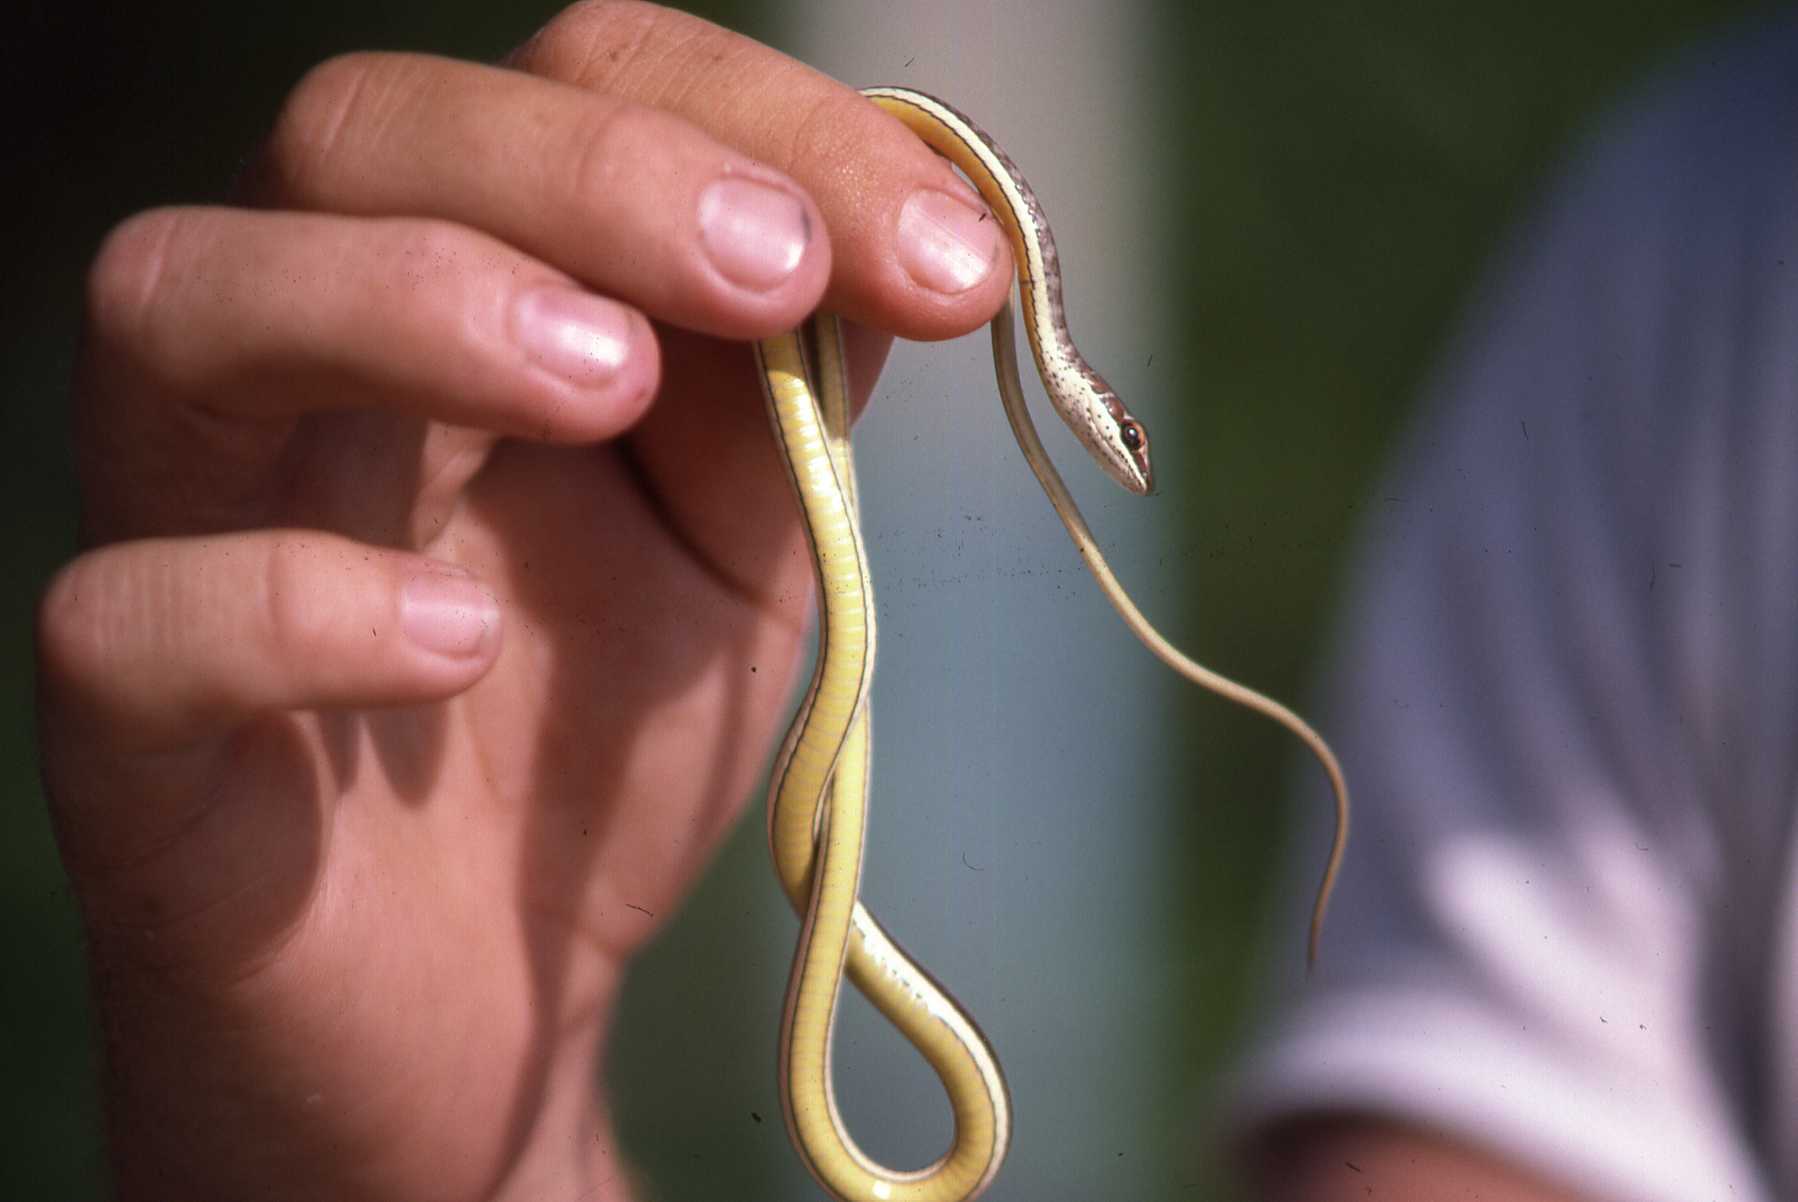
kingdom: Animalia
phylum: Chordata
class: Squamata
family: Psammophiidae
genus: Psammophis
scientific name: Psammophis orientalis
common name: Eastern stripe-bellied sand snake
